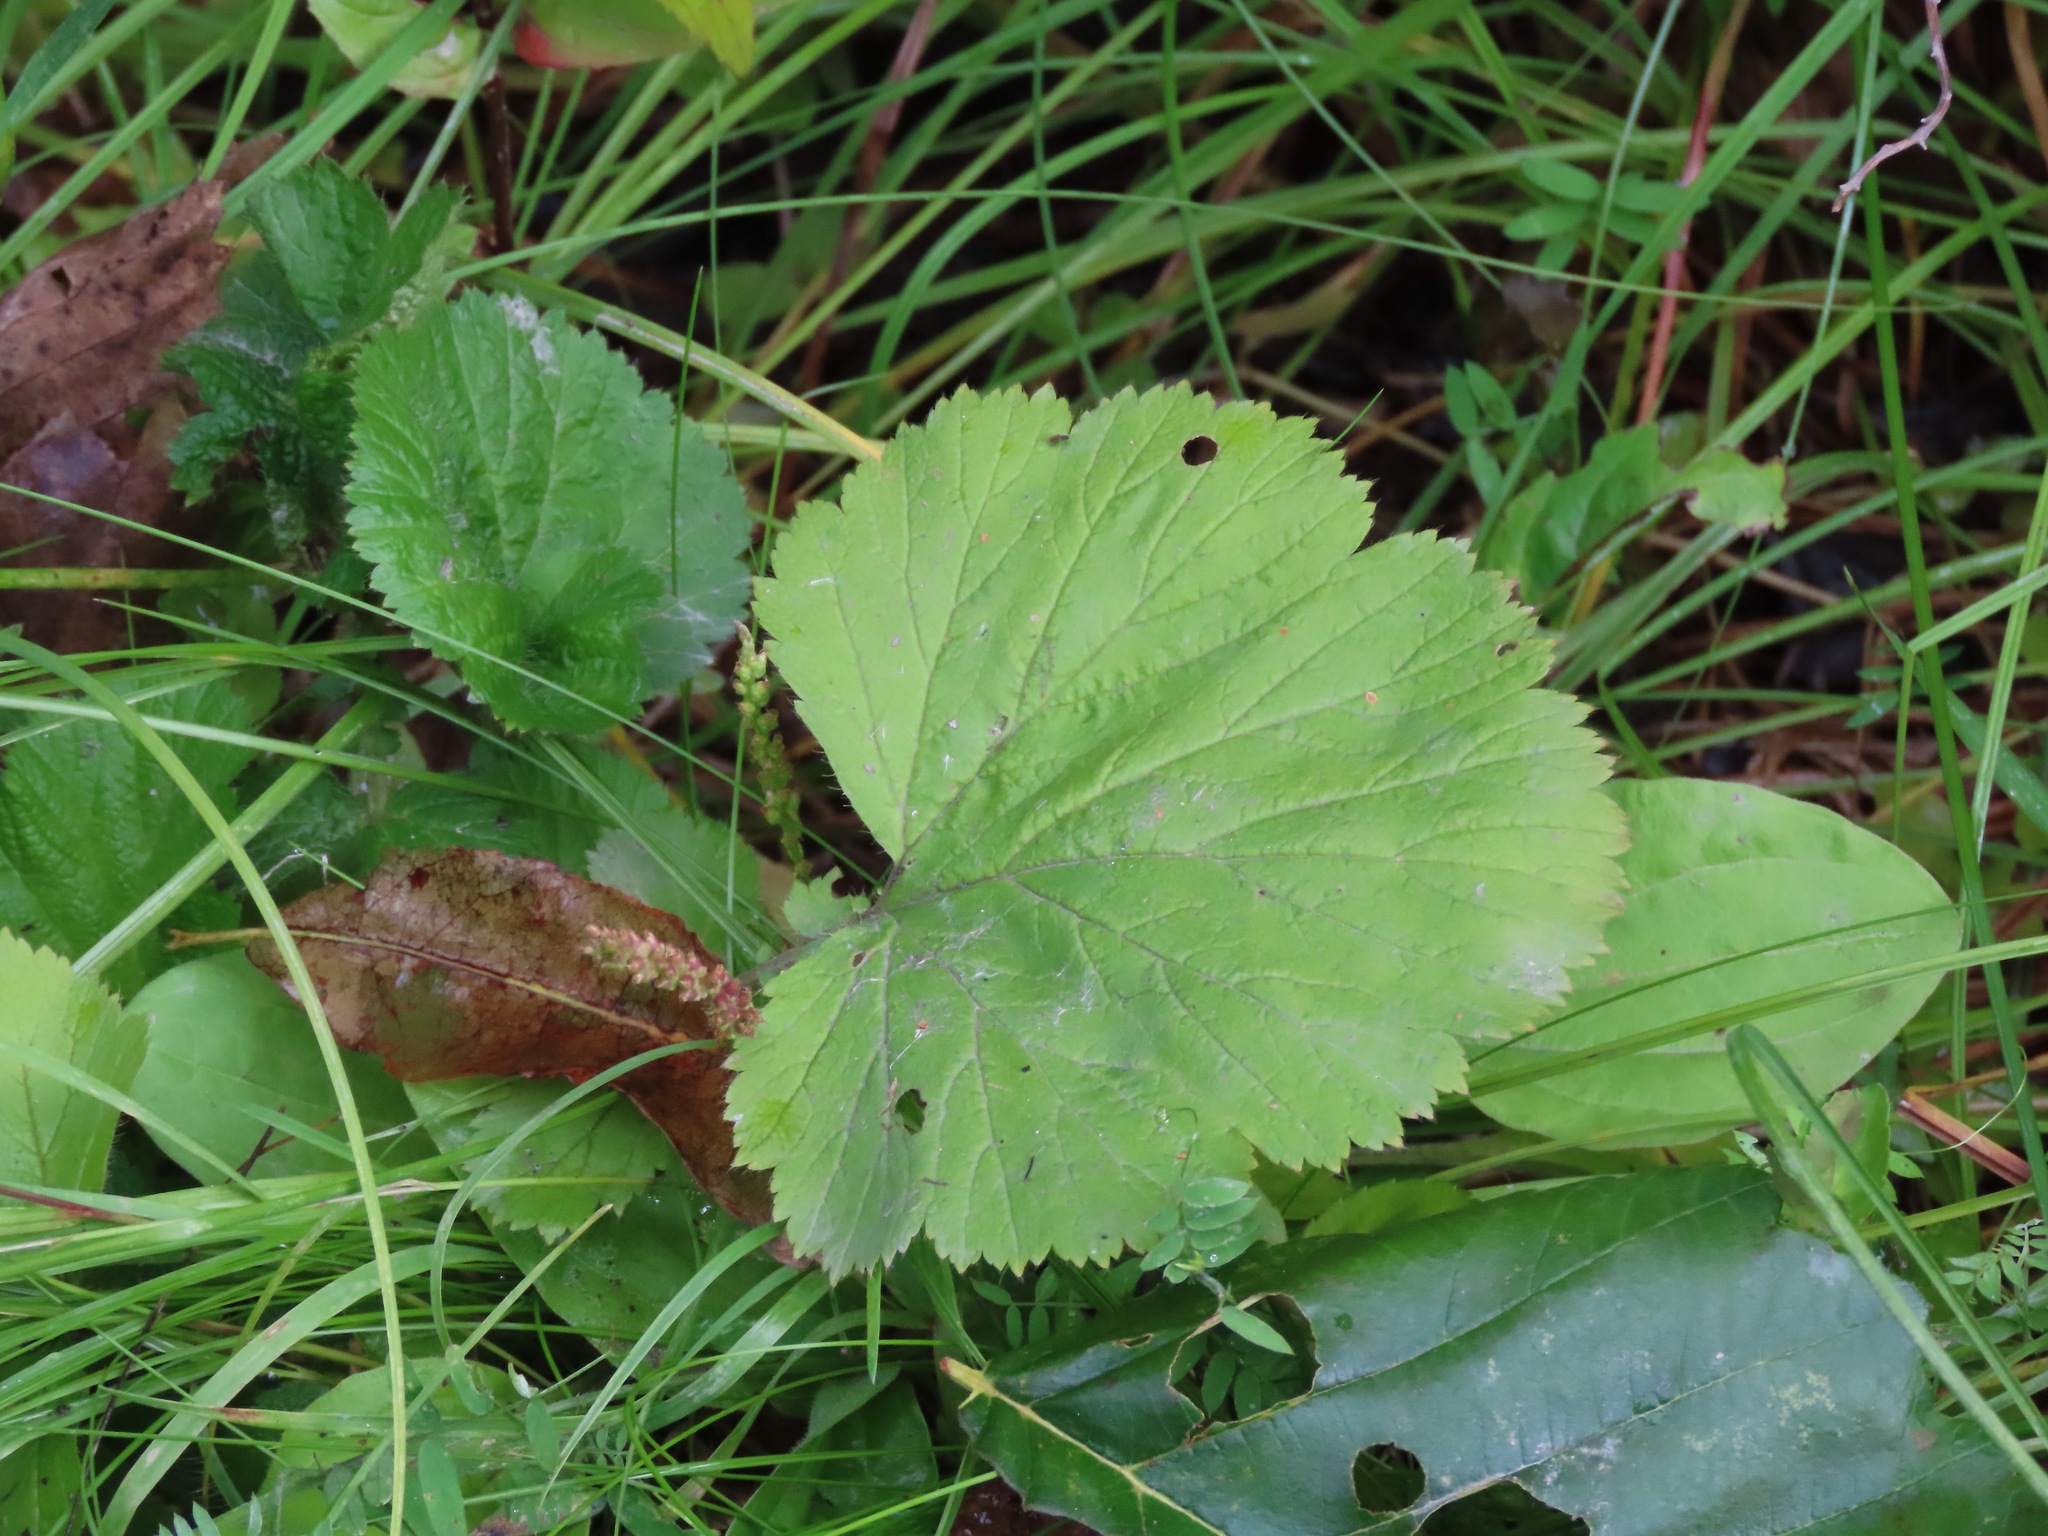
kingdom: Plantae
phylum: Tracheophyta
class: Magnoliopsida
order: Rosales
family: Rosaceae
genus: Geum
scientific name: Geum macrophyllum
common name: Large-leaved avens
